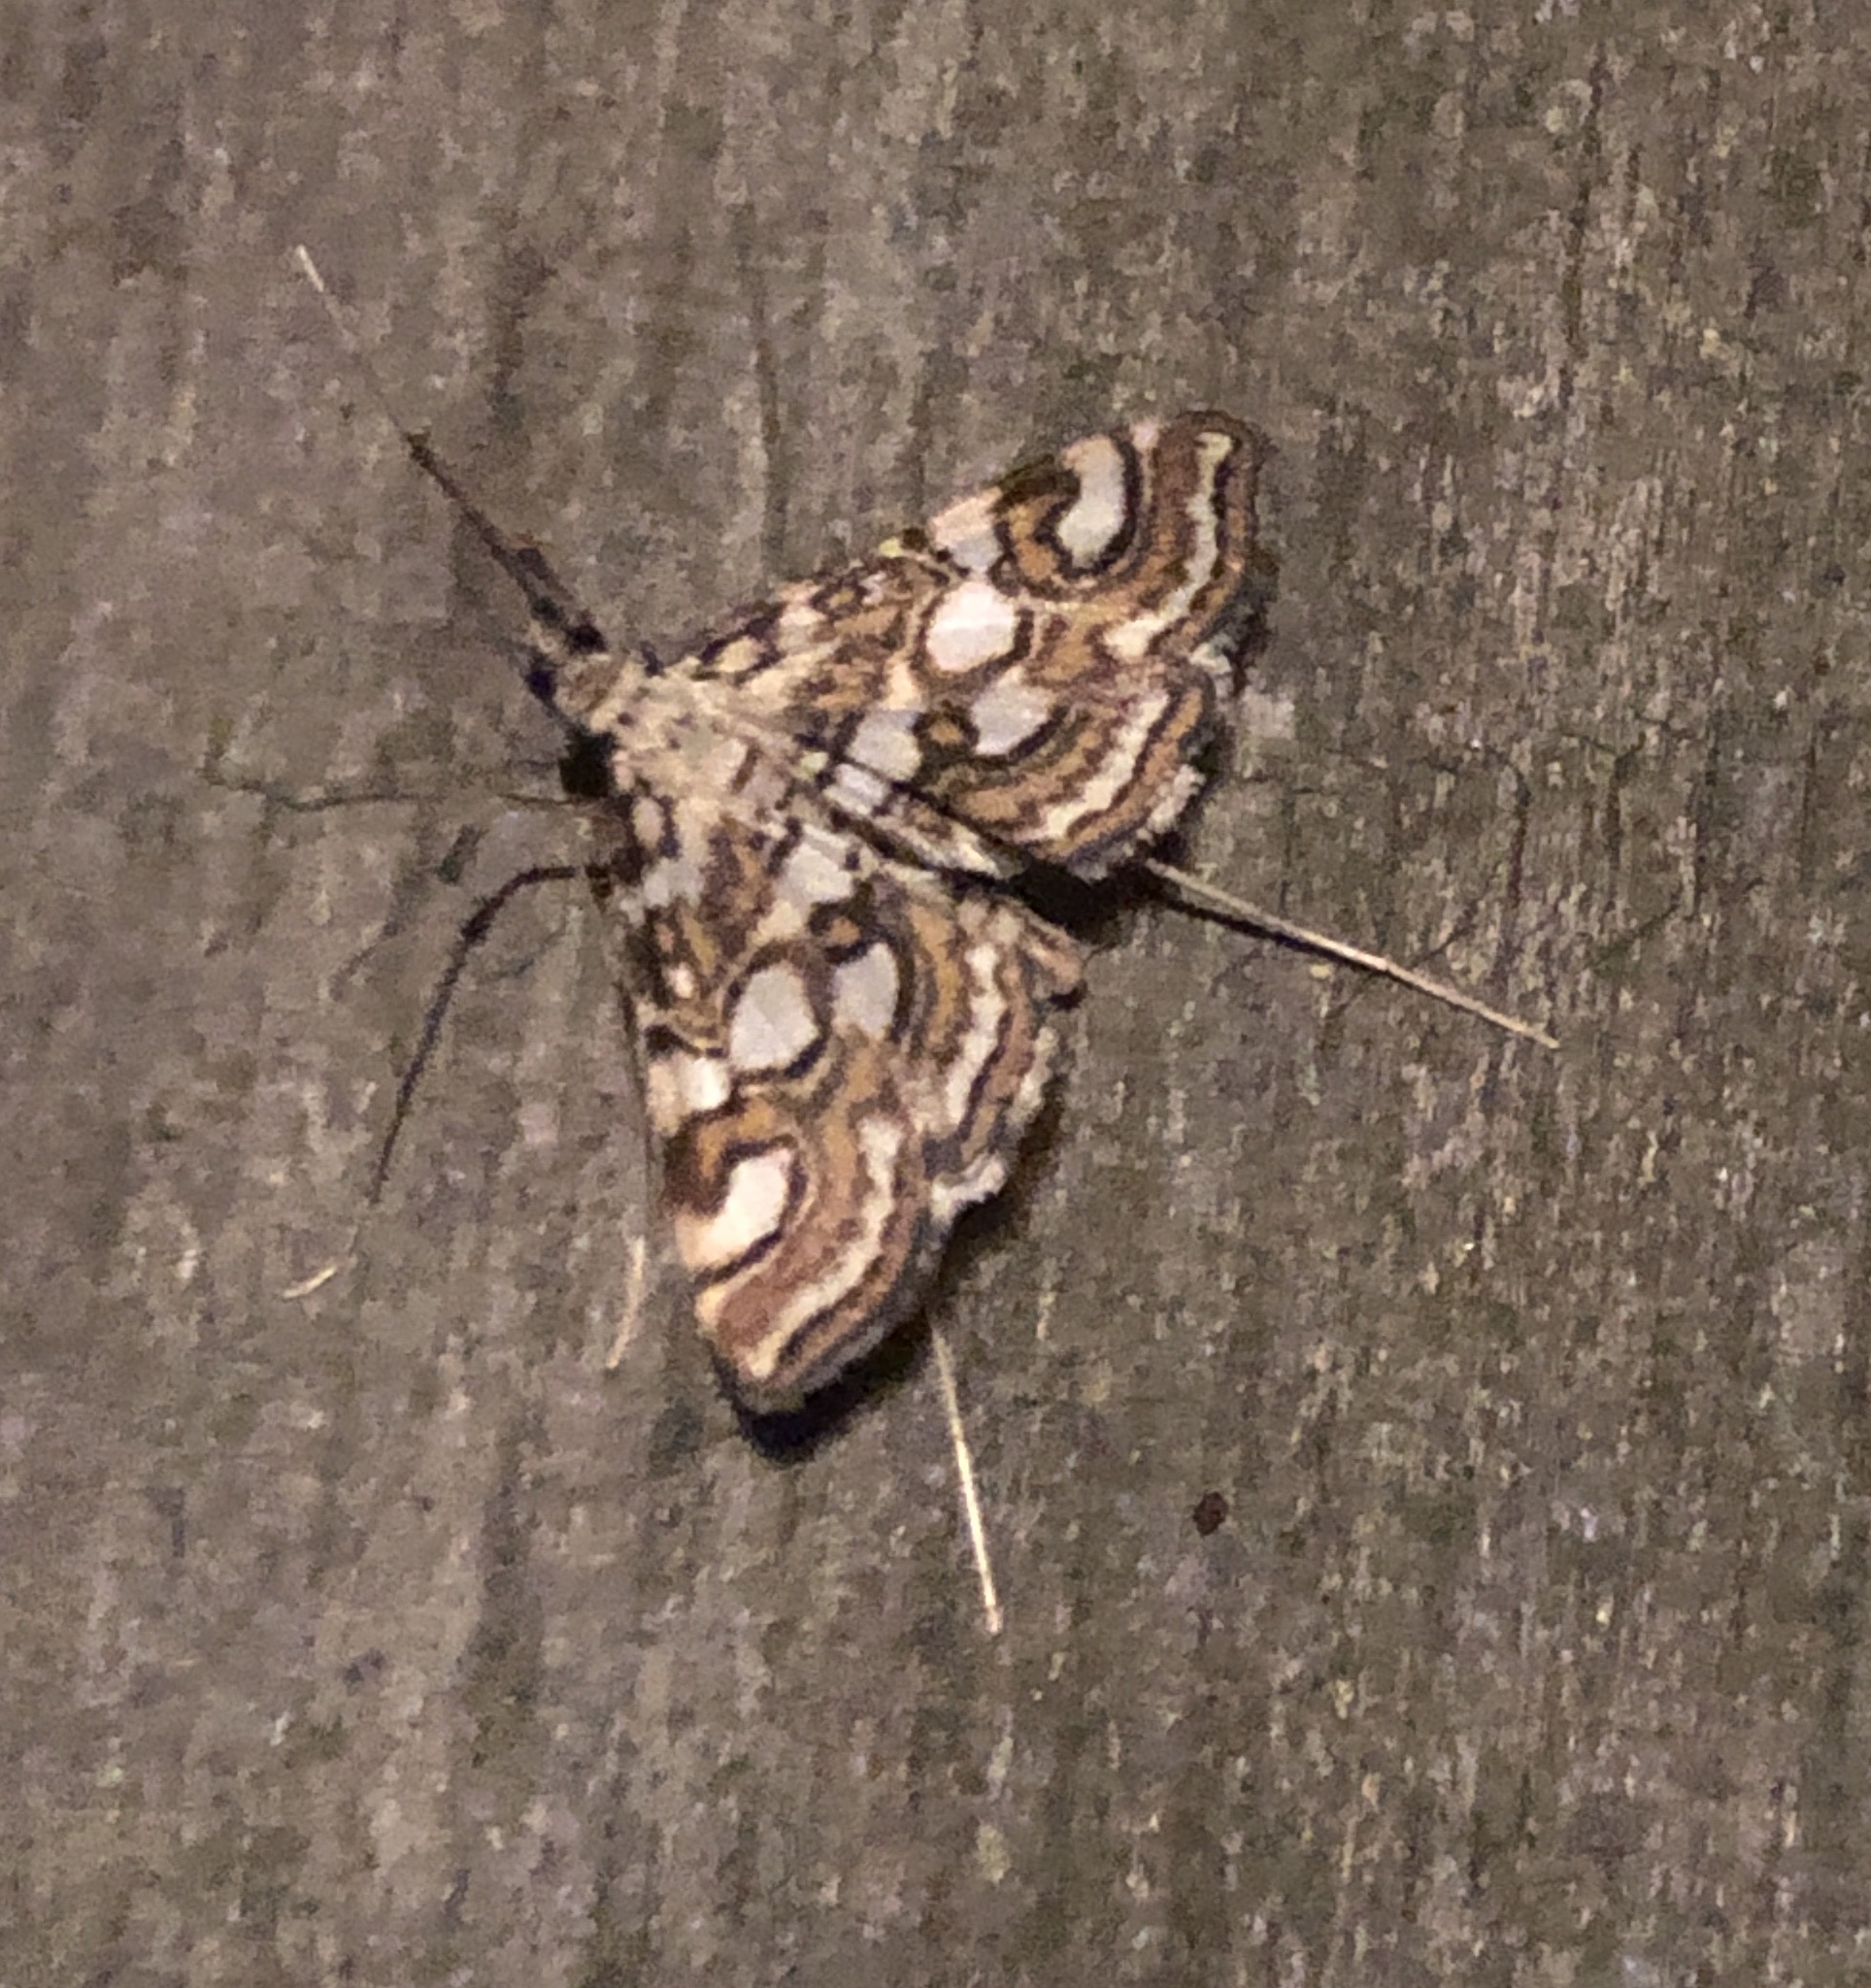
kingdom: Animalia
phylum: Arthropoda
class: Insecta
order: Lepidoptera
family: Crambidae
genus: Elophila
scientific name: Elophila ekthlipsis
